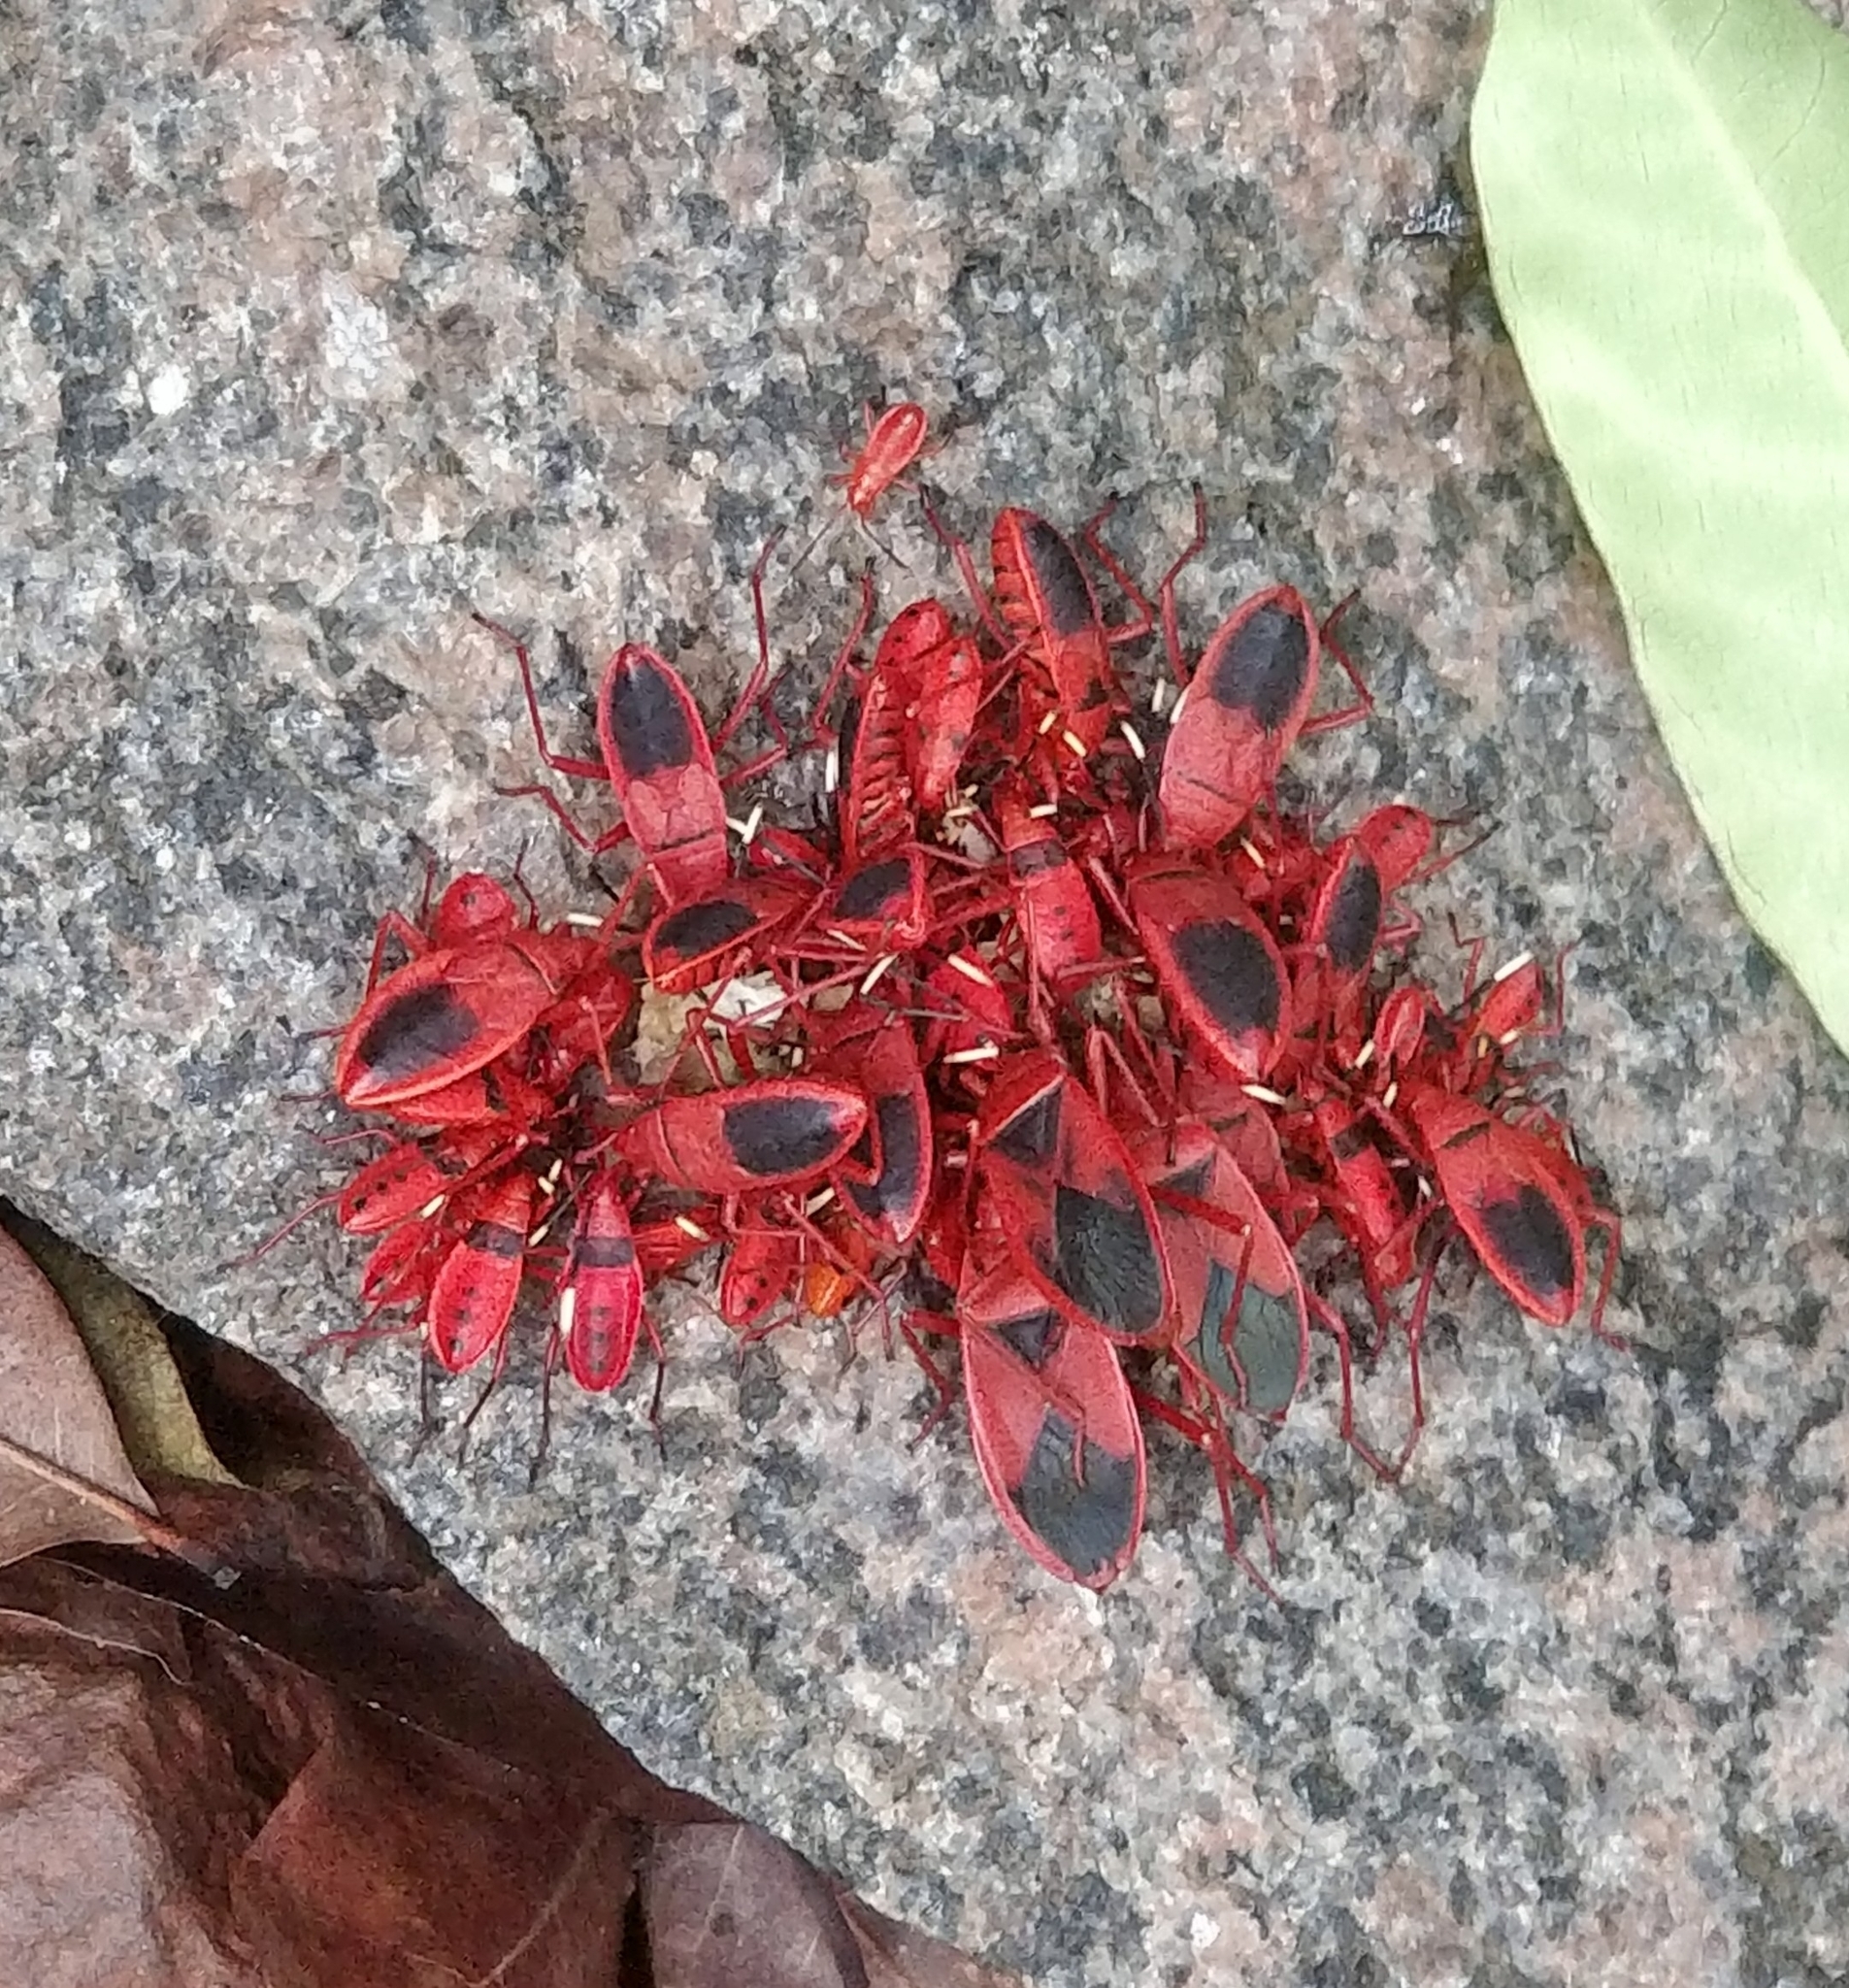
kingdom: Animalia
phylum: Arthropoda
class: Insecta
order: Hemiptera
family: Pyrrhocoridae
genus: Probergrothius
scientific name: Probergrothius
